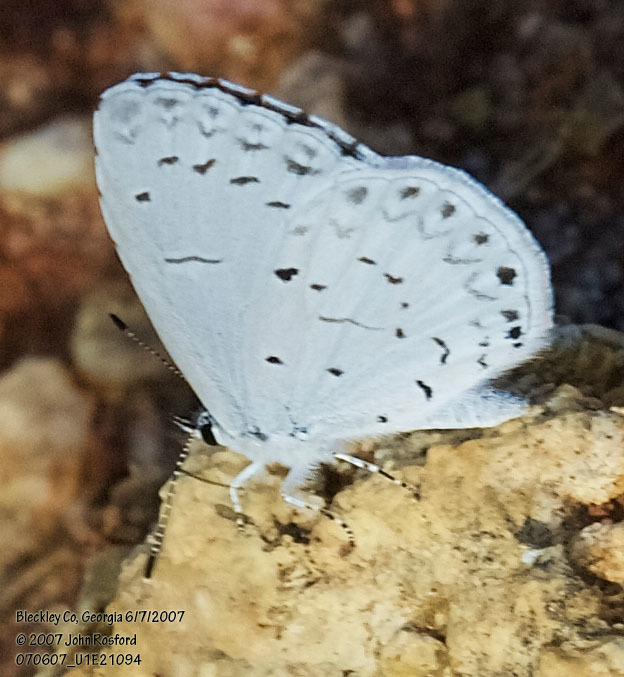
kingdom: Animalia
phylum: Arthropoda
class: Insecta
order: Lepidoptera
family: Lycaenidae
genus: Cyaniris
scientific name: Cyaniris neglecta
